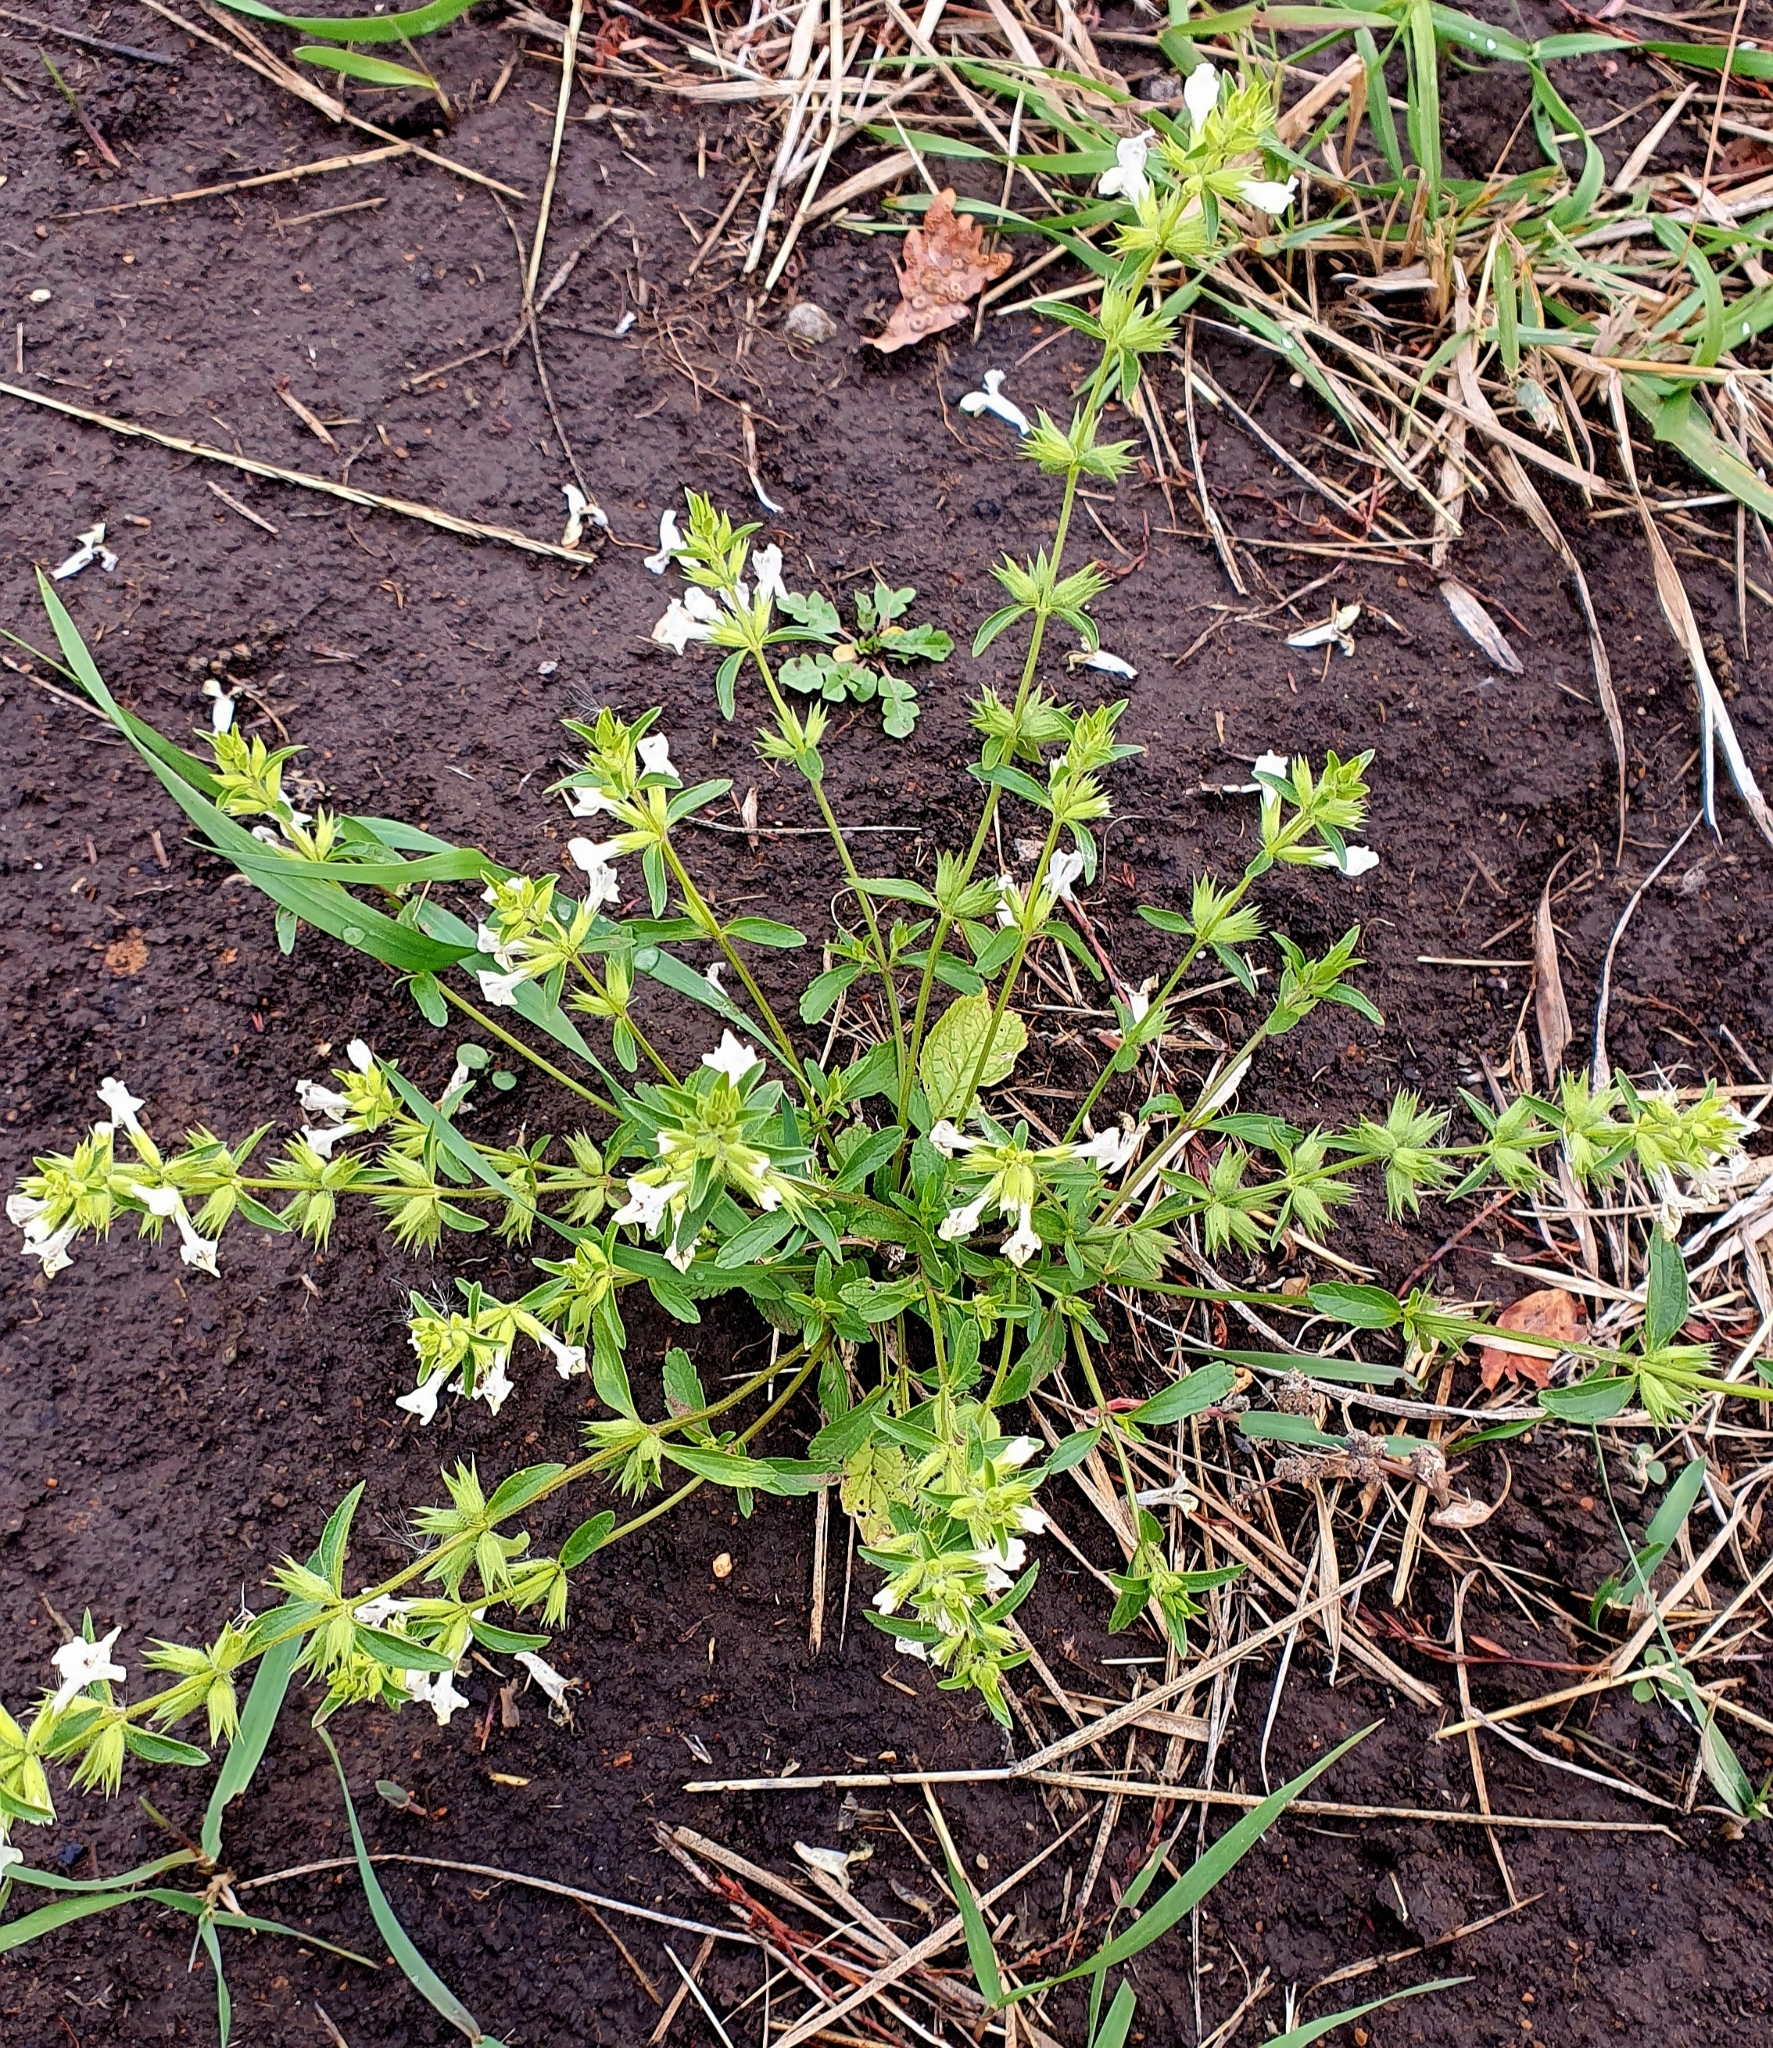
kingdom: Plantae
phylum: Tracheophyta
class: Magnoliopsida
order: Lamiales
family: Lamiaceae
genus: Stachys
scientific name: Stachys annua
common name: Annual yellow-woundwort
